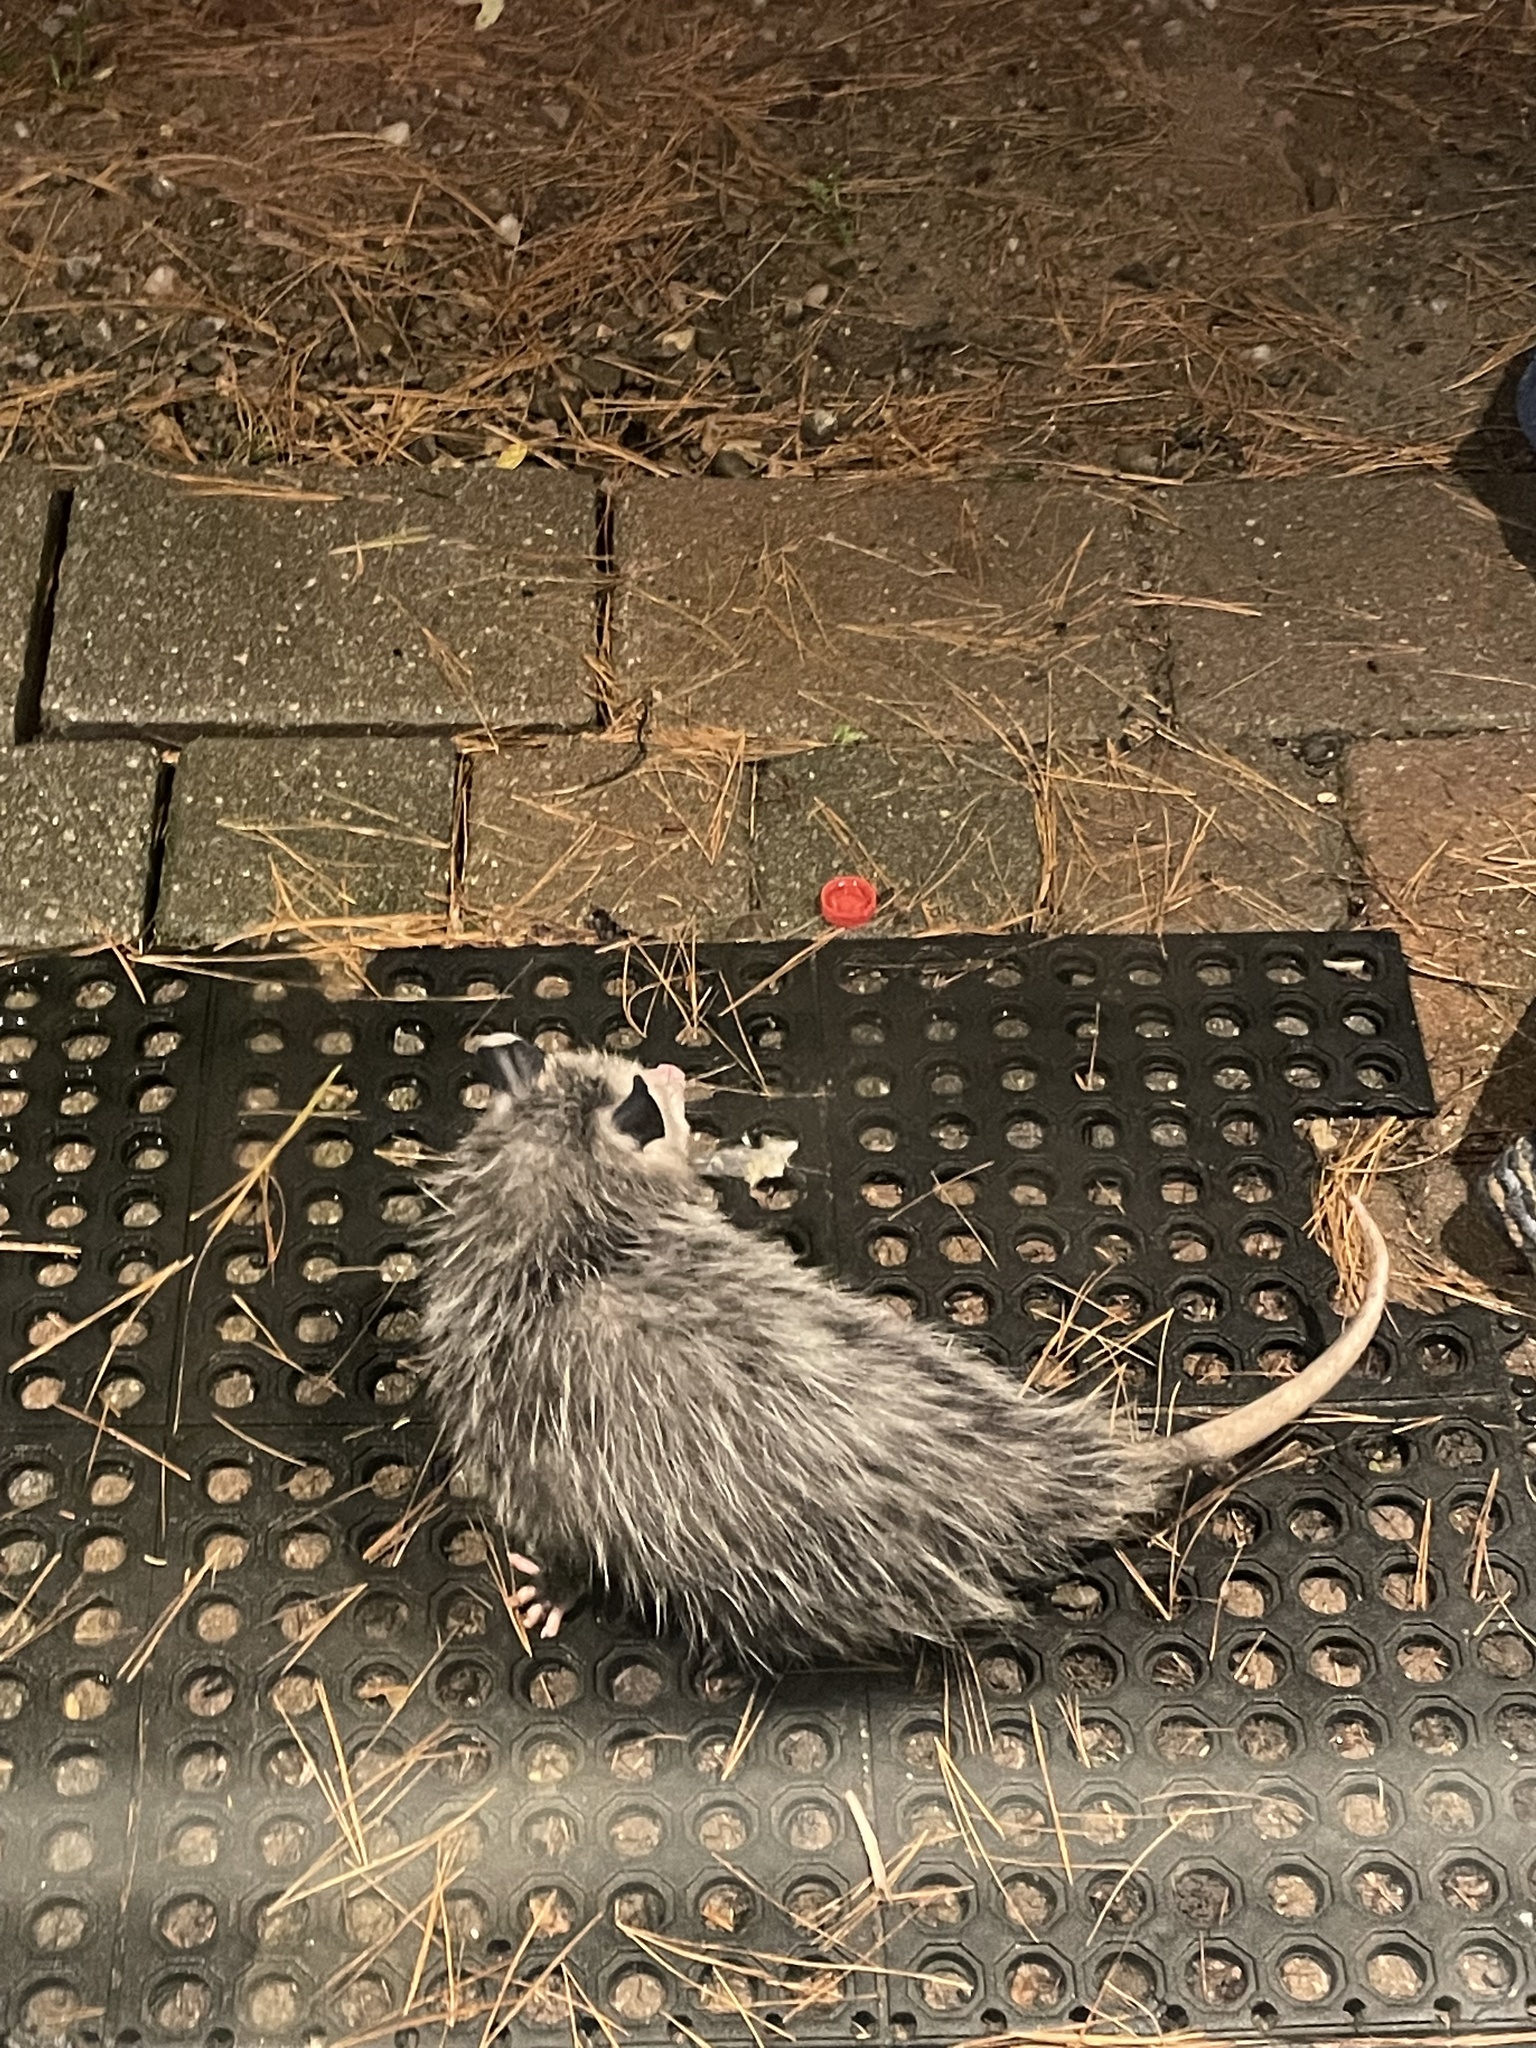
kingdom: Animalia
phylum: Chordata
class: Mammalia
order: Didelphimorphia
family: Didelphidae
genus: Didelphis
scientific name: Didelphis virginiana
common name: Virginia opossum
